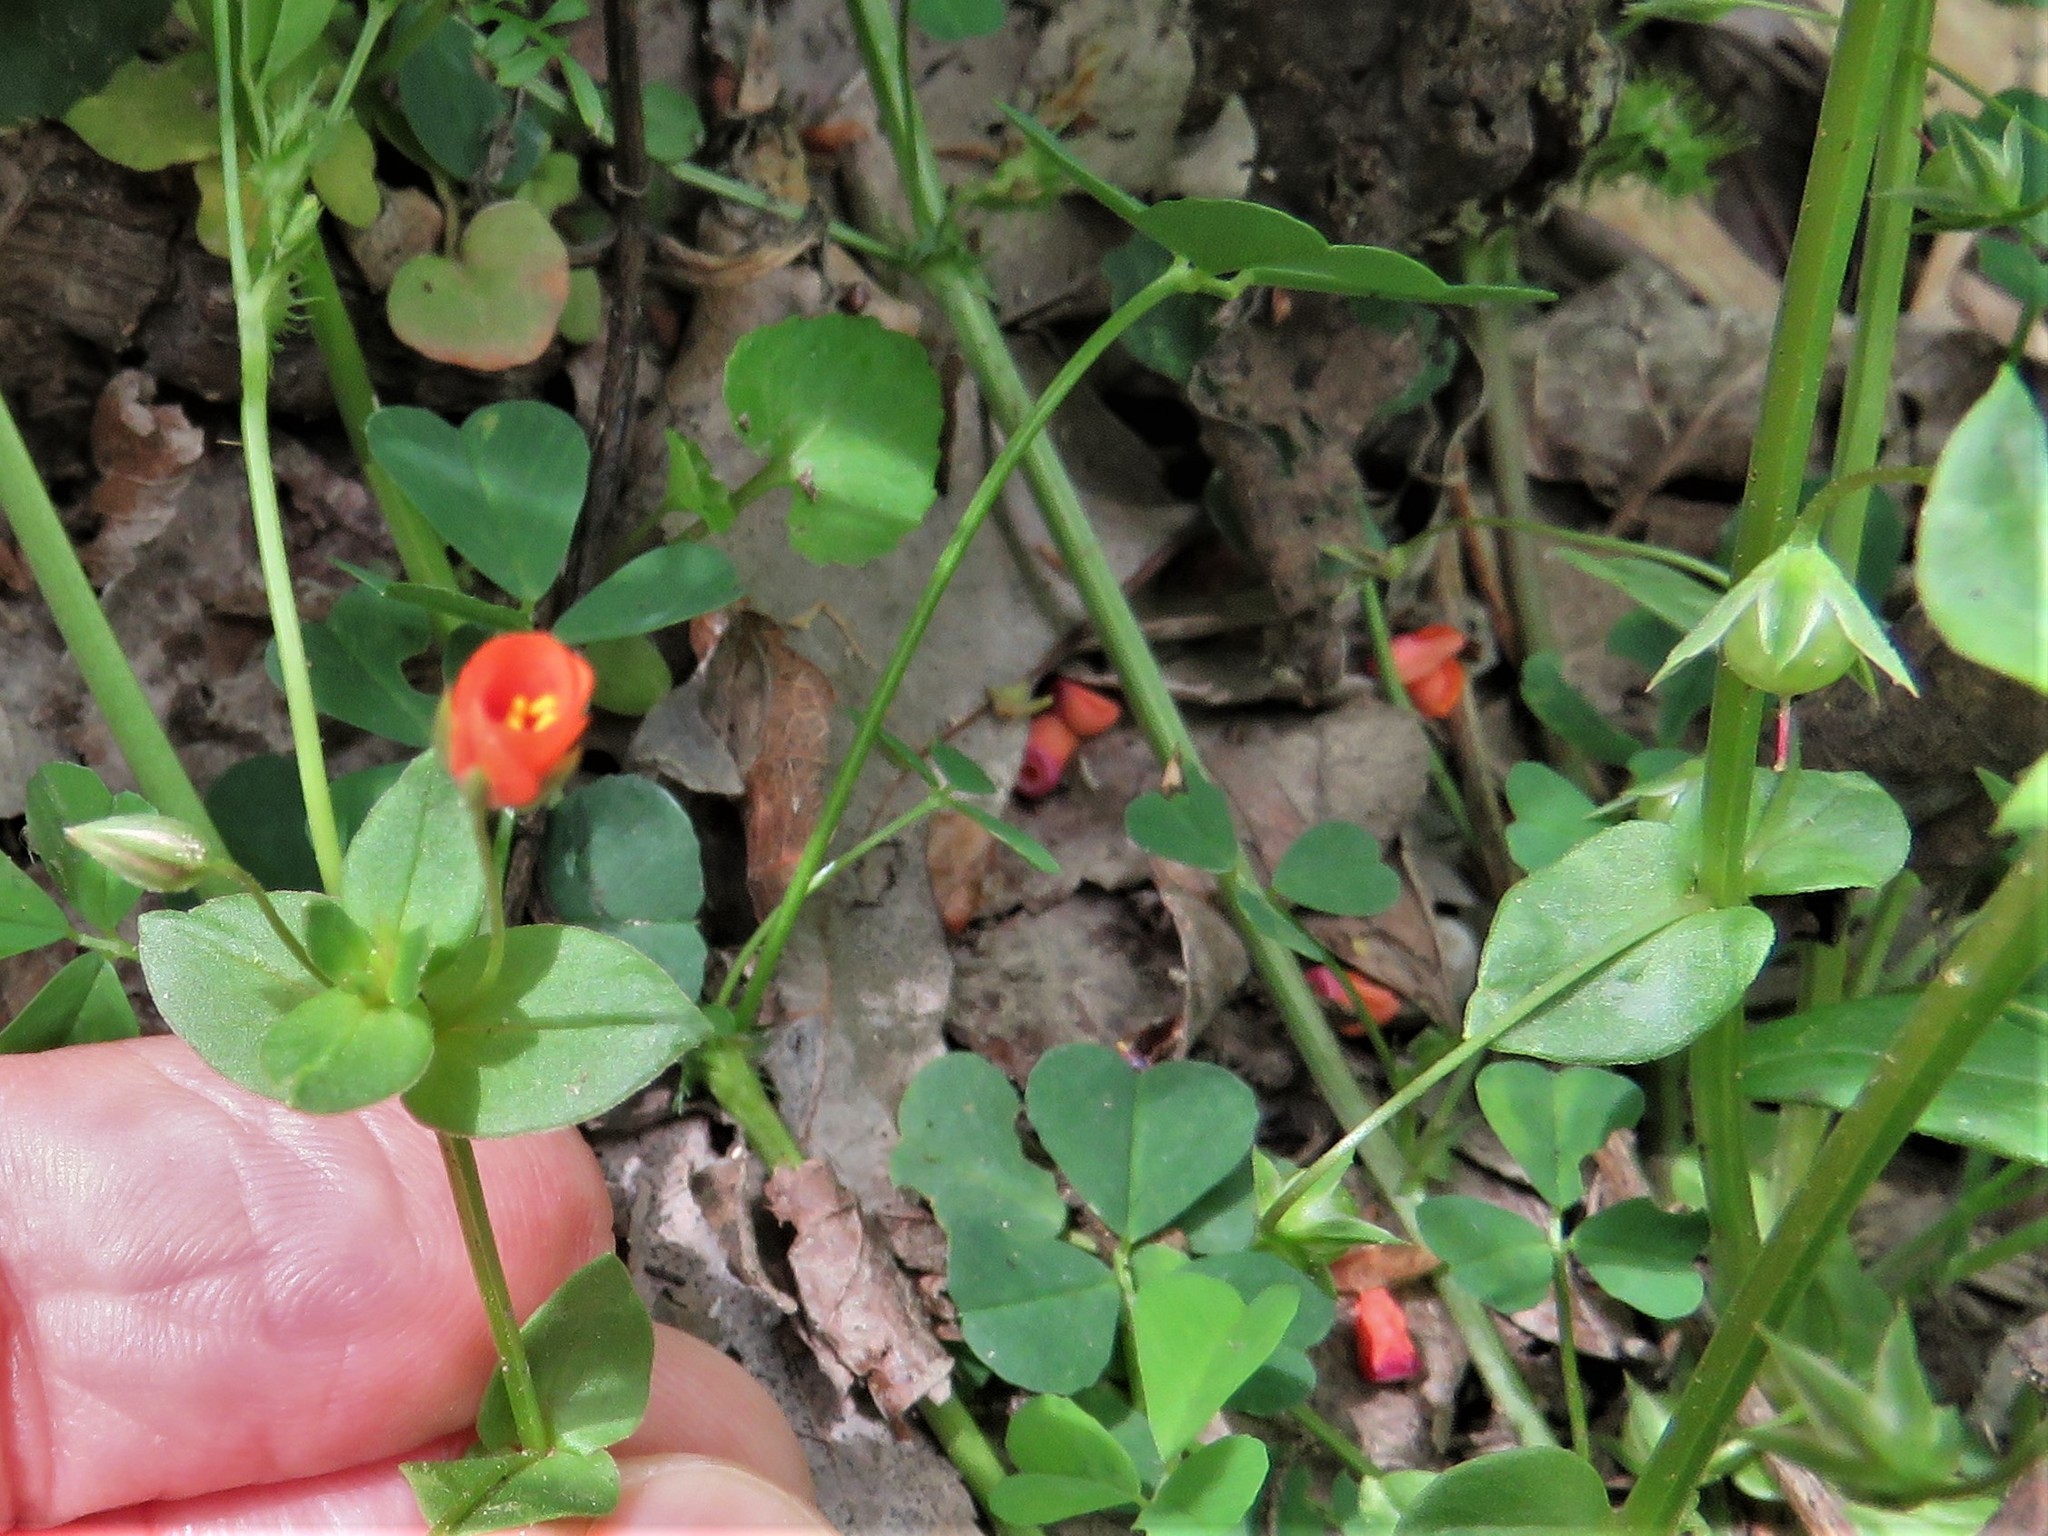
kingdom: Plantae
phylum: Tracheophyta
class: Magnoliopsida
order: Ericales
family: Primulaceae
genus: Lysimachia
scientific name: Lysimachia arvensis
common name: Scarlet pimpernel
